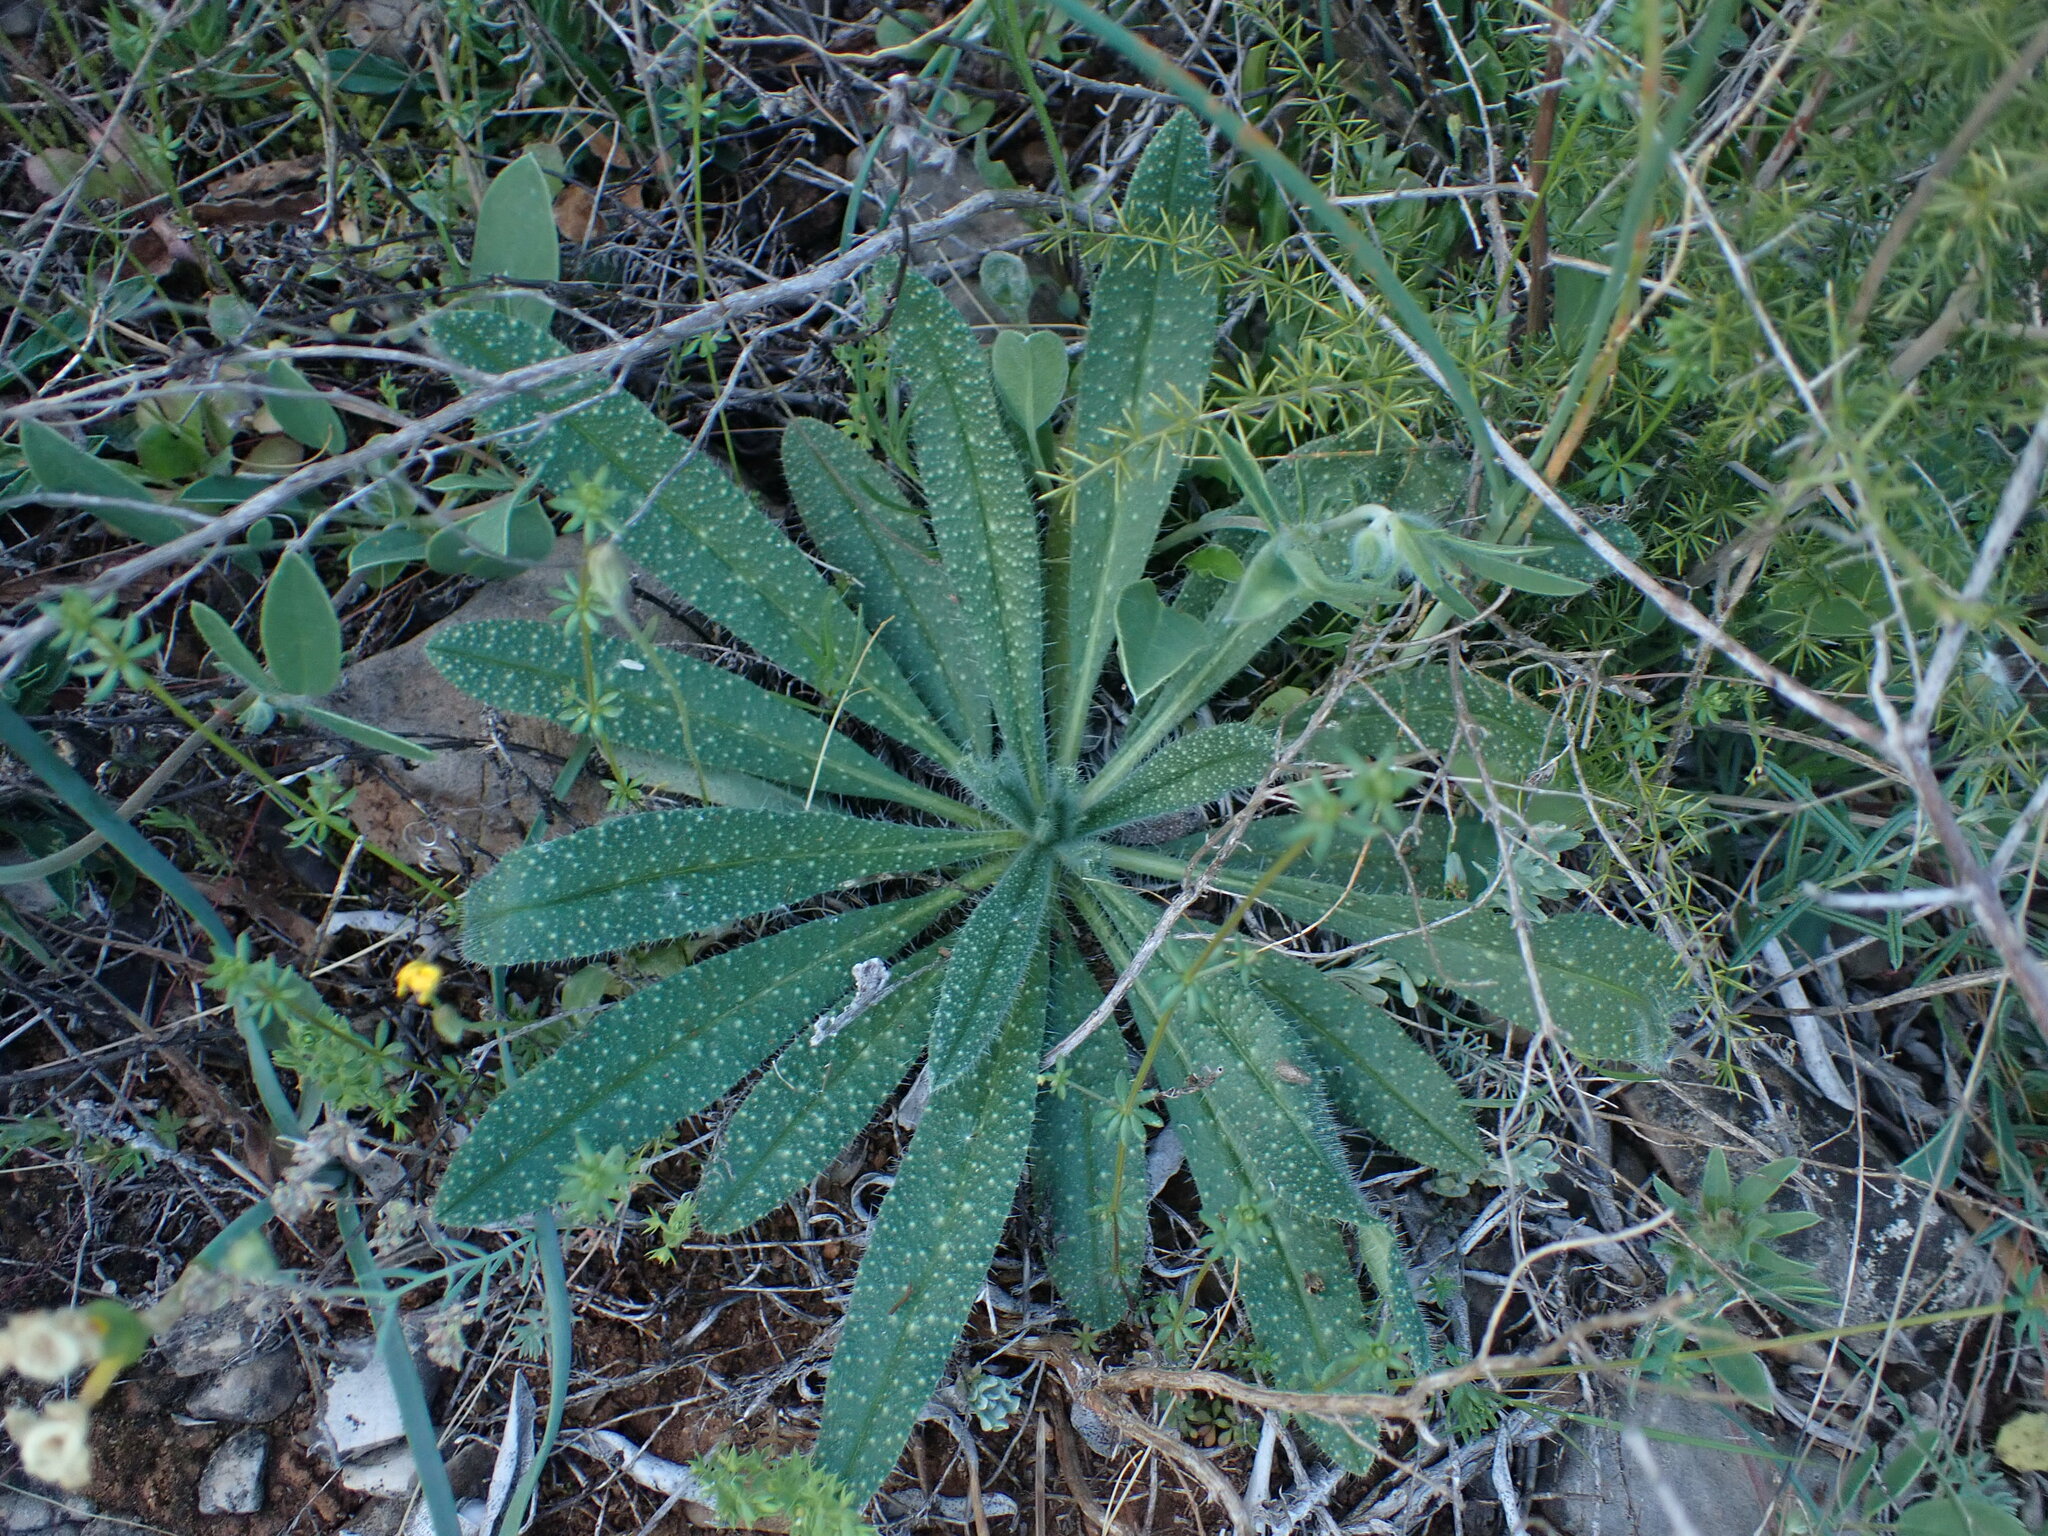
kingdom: Plantae
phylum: Tracheophyta
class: Magnoliopsida
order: Boraginales
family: Boraginaceae
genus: Echium
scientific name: Echium vulgare
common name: Common viper's bugloss
